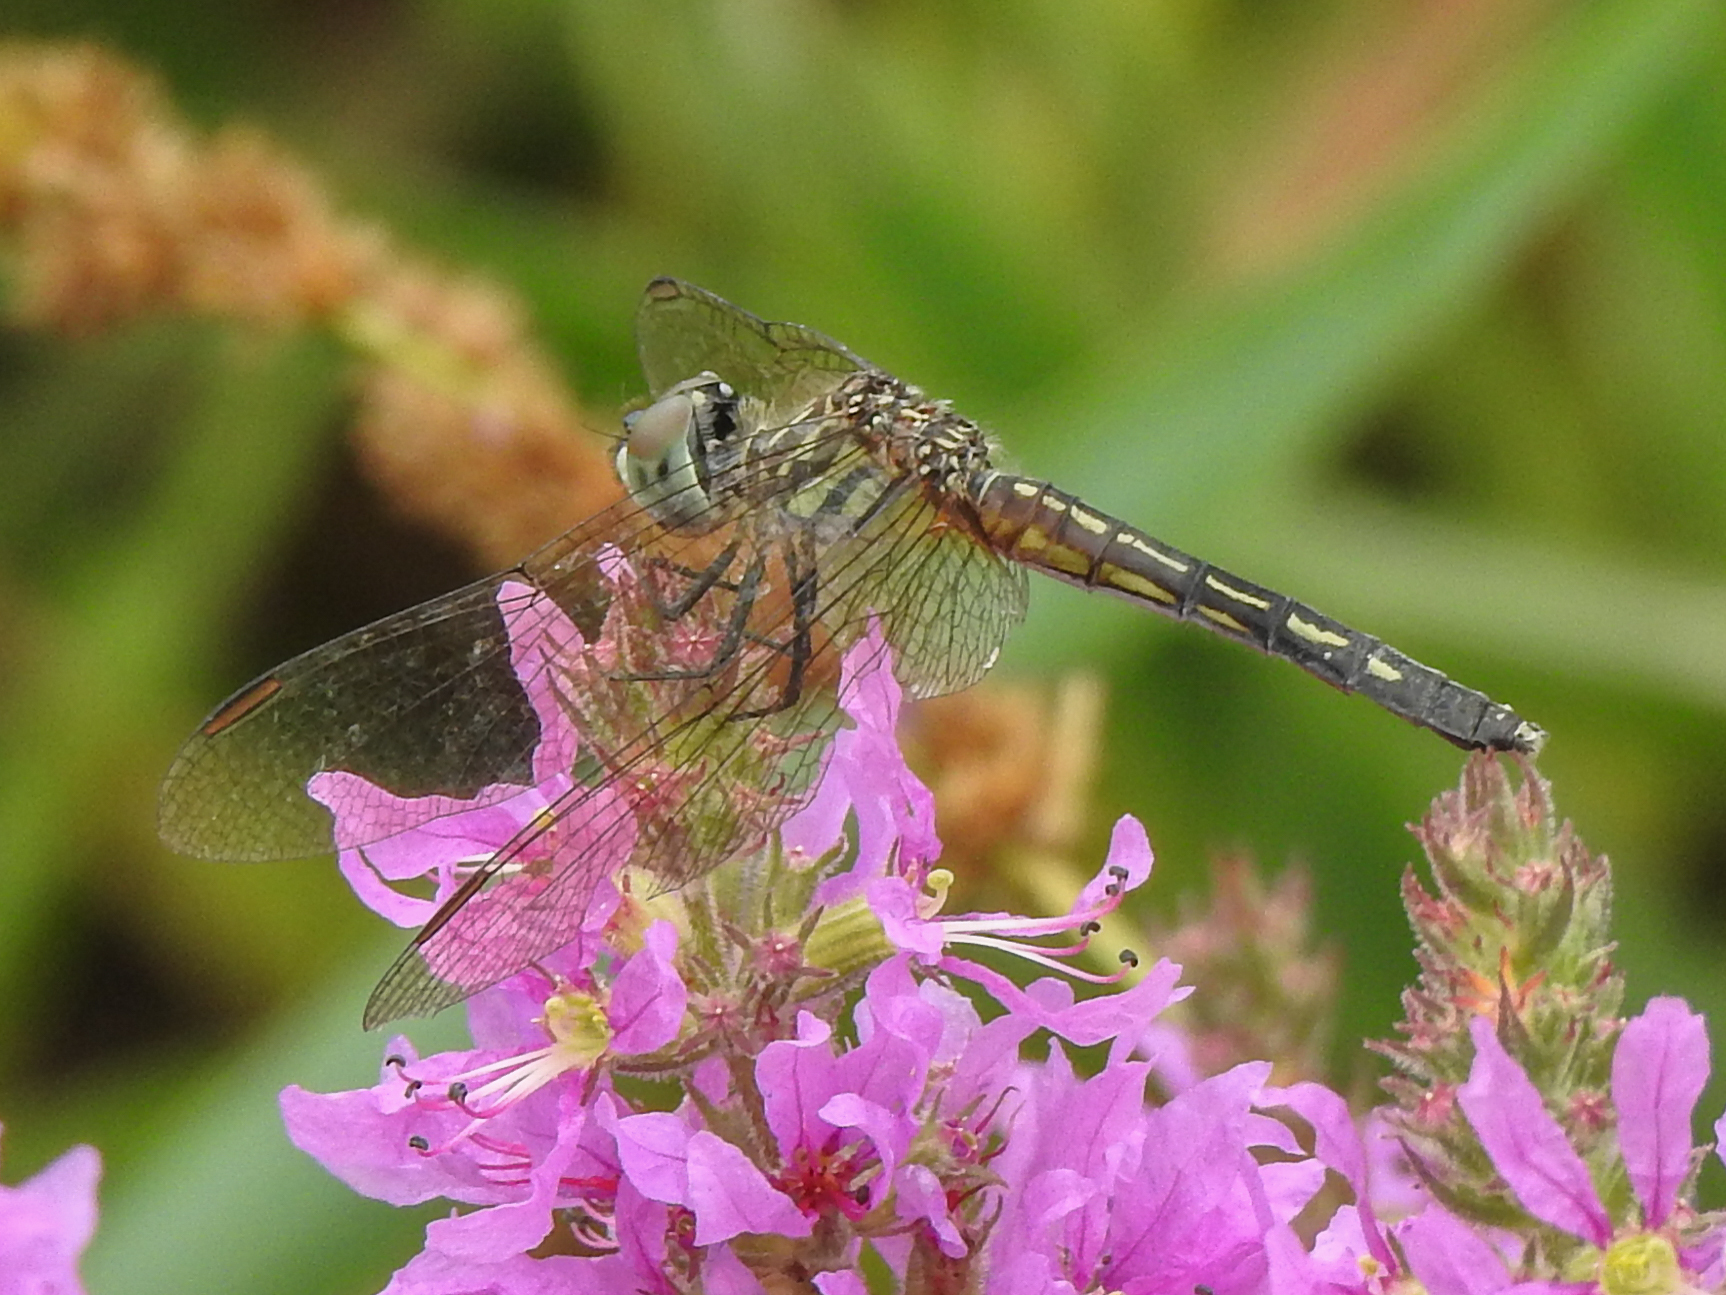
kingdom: Animalia
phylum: Arthropoda
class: Insecta
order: Odonata
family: Libellulidae
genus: Pachydiplax
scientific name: Pachydiplax longipennis
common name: Blue dasher
